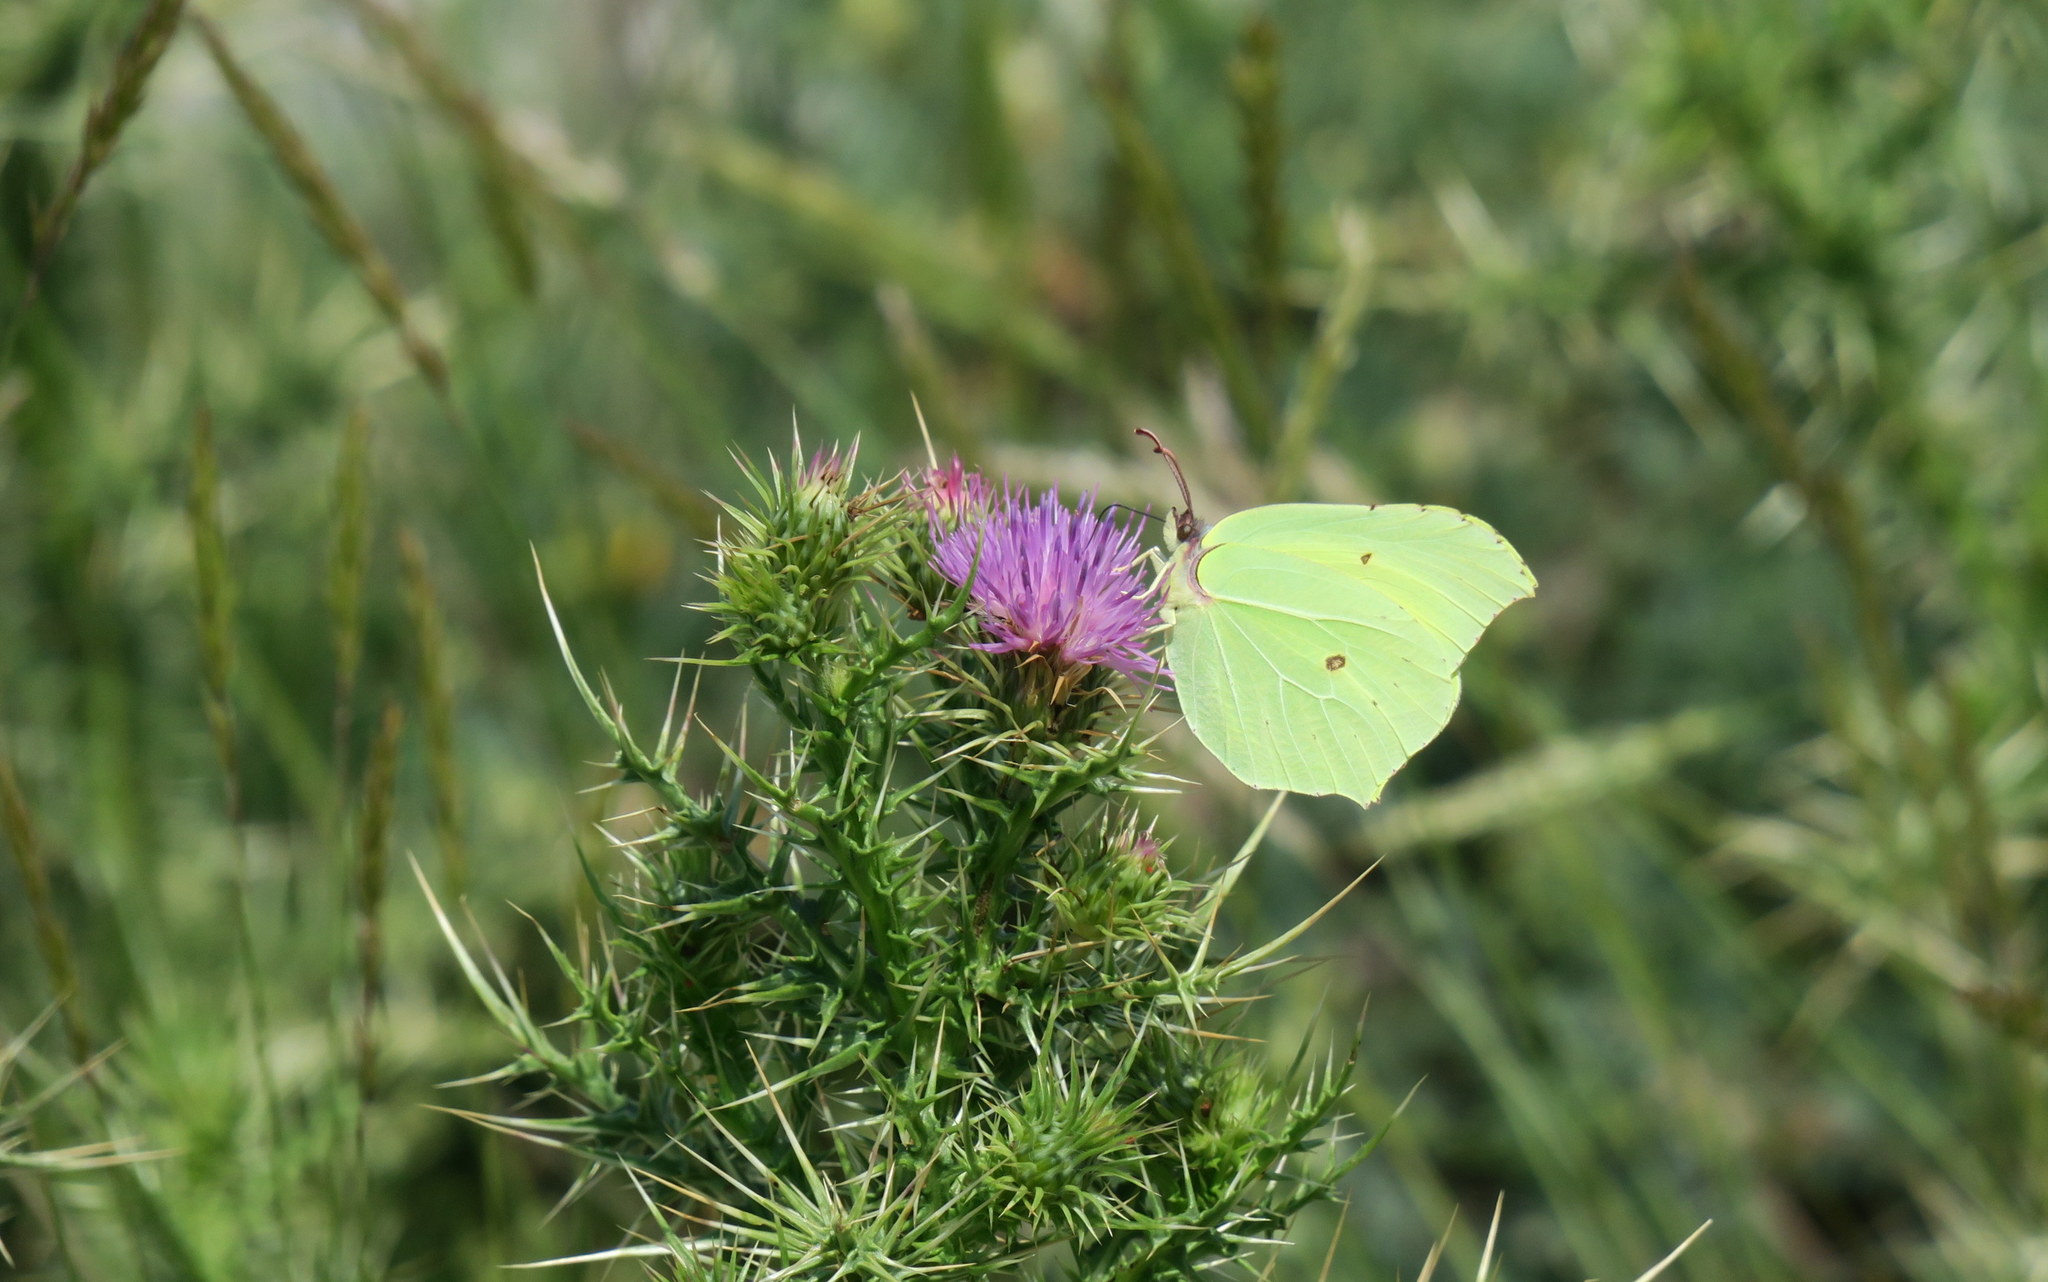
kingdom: Animalia
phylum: Arthropoda
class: Insecta
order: Lepidoptera
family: Pieridae
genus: Gonepteryx
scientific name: Gonepteryx rhamni
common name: Brimstone
